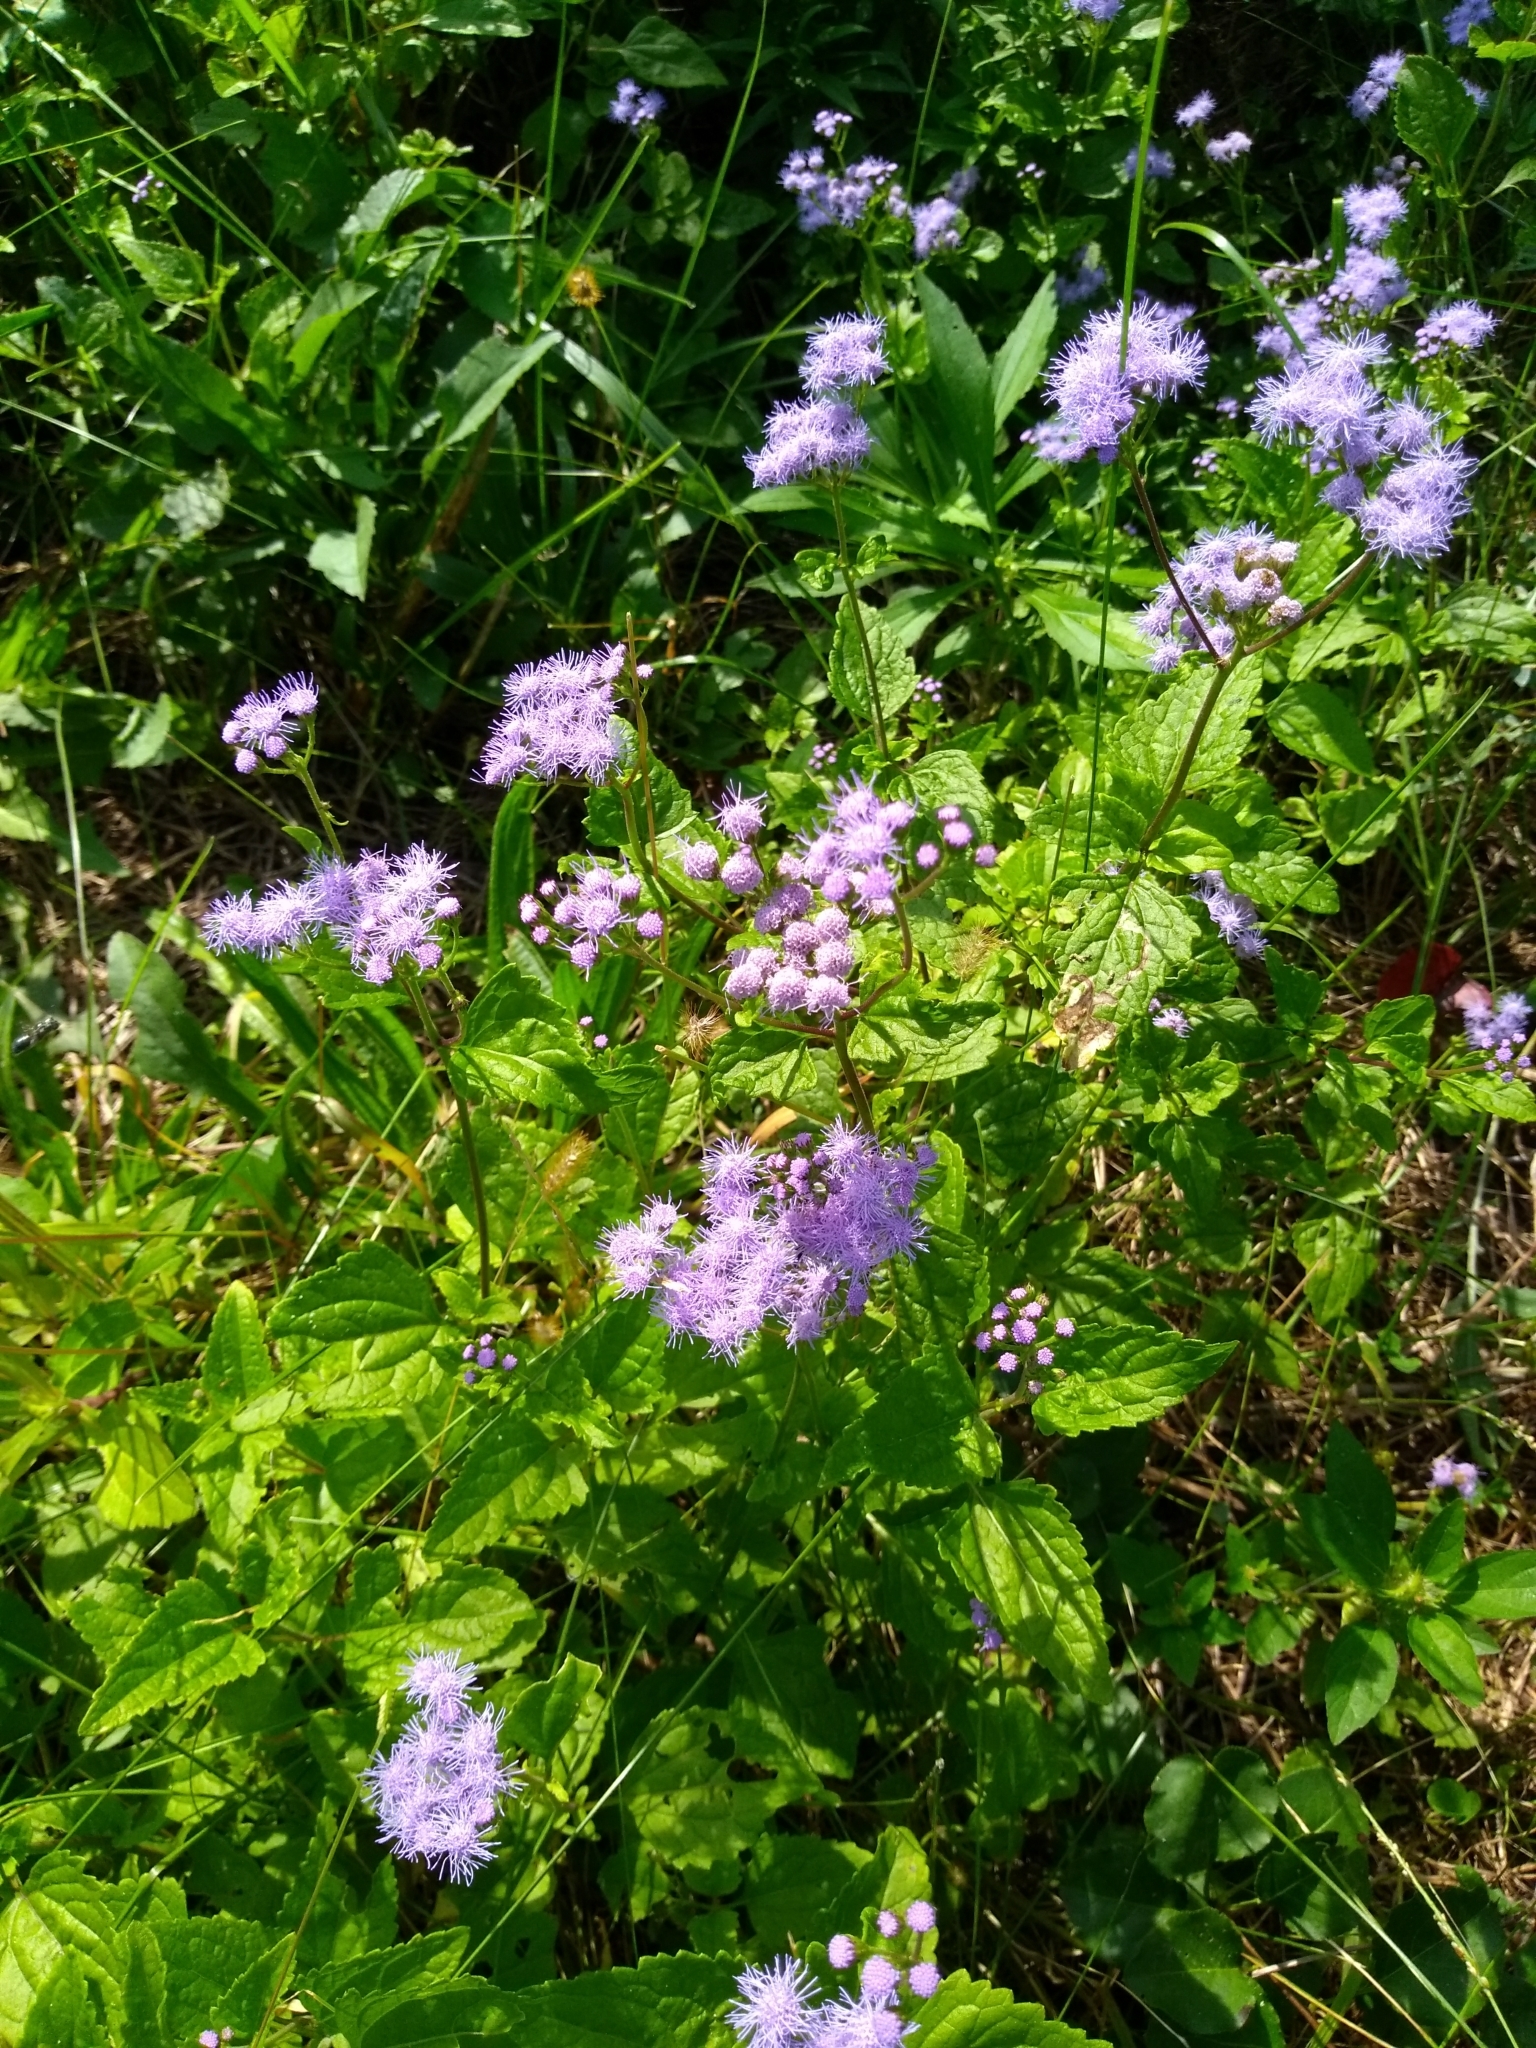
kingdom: Plantae
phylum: Tracheophyta
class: Magnoliopsida
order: Asterales
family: Asteraceae
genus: Conoclinium
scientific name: Conoclinium coelestinum
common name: Blue mistflower
